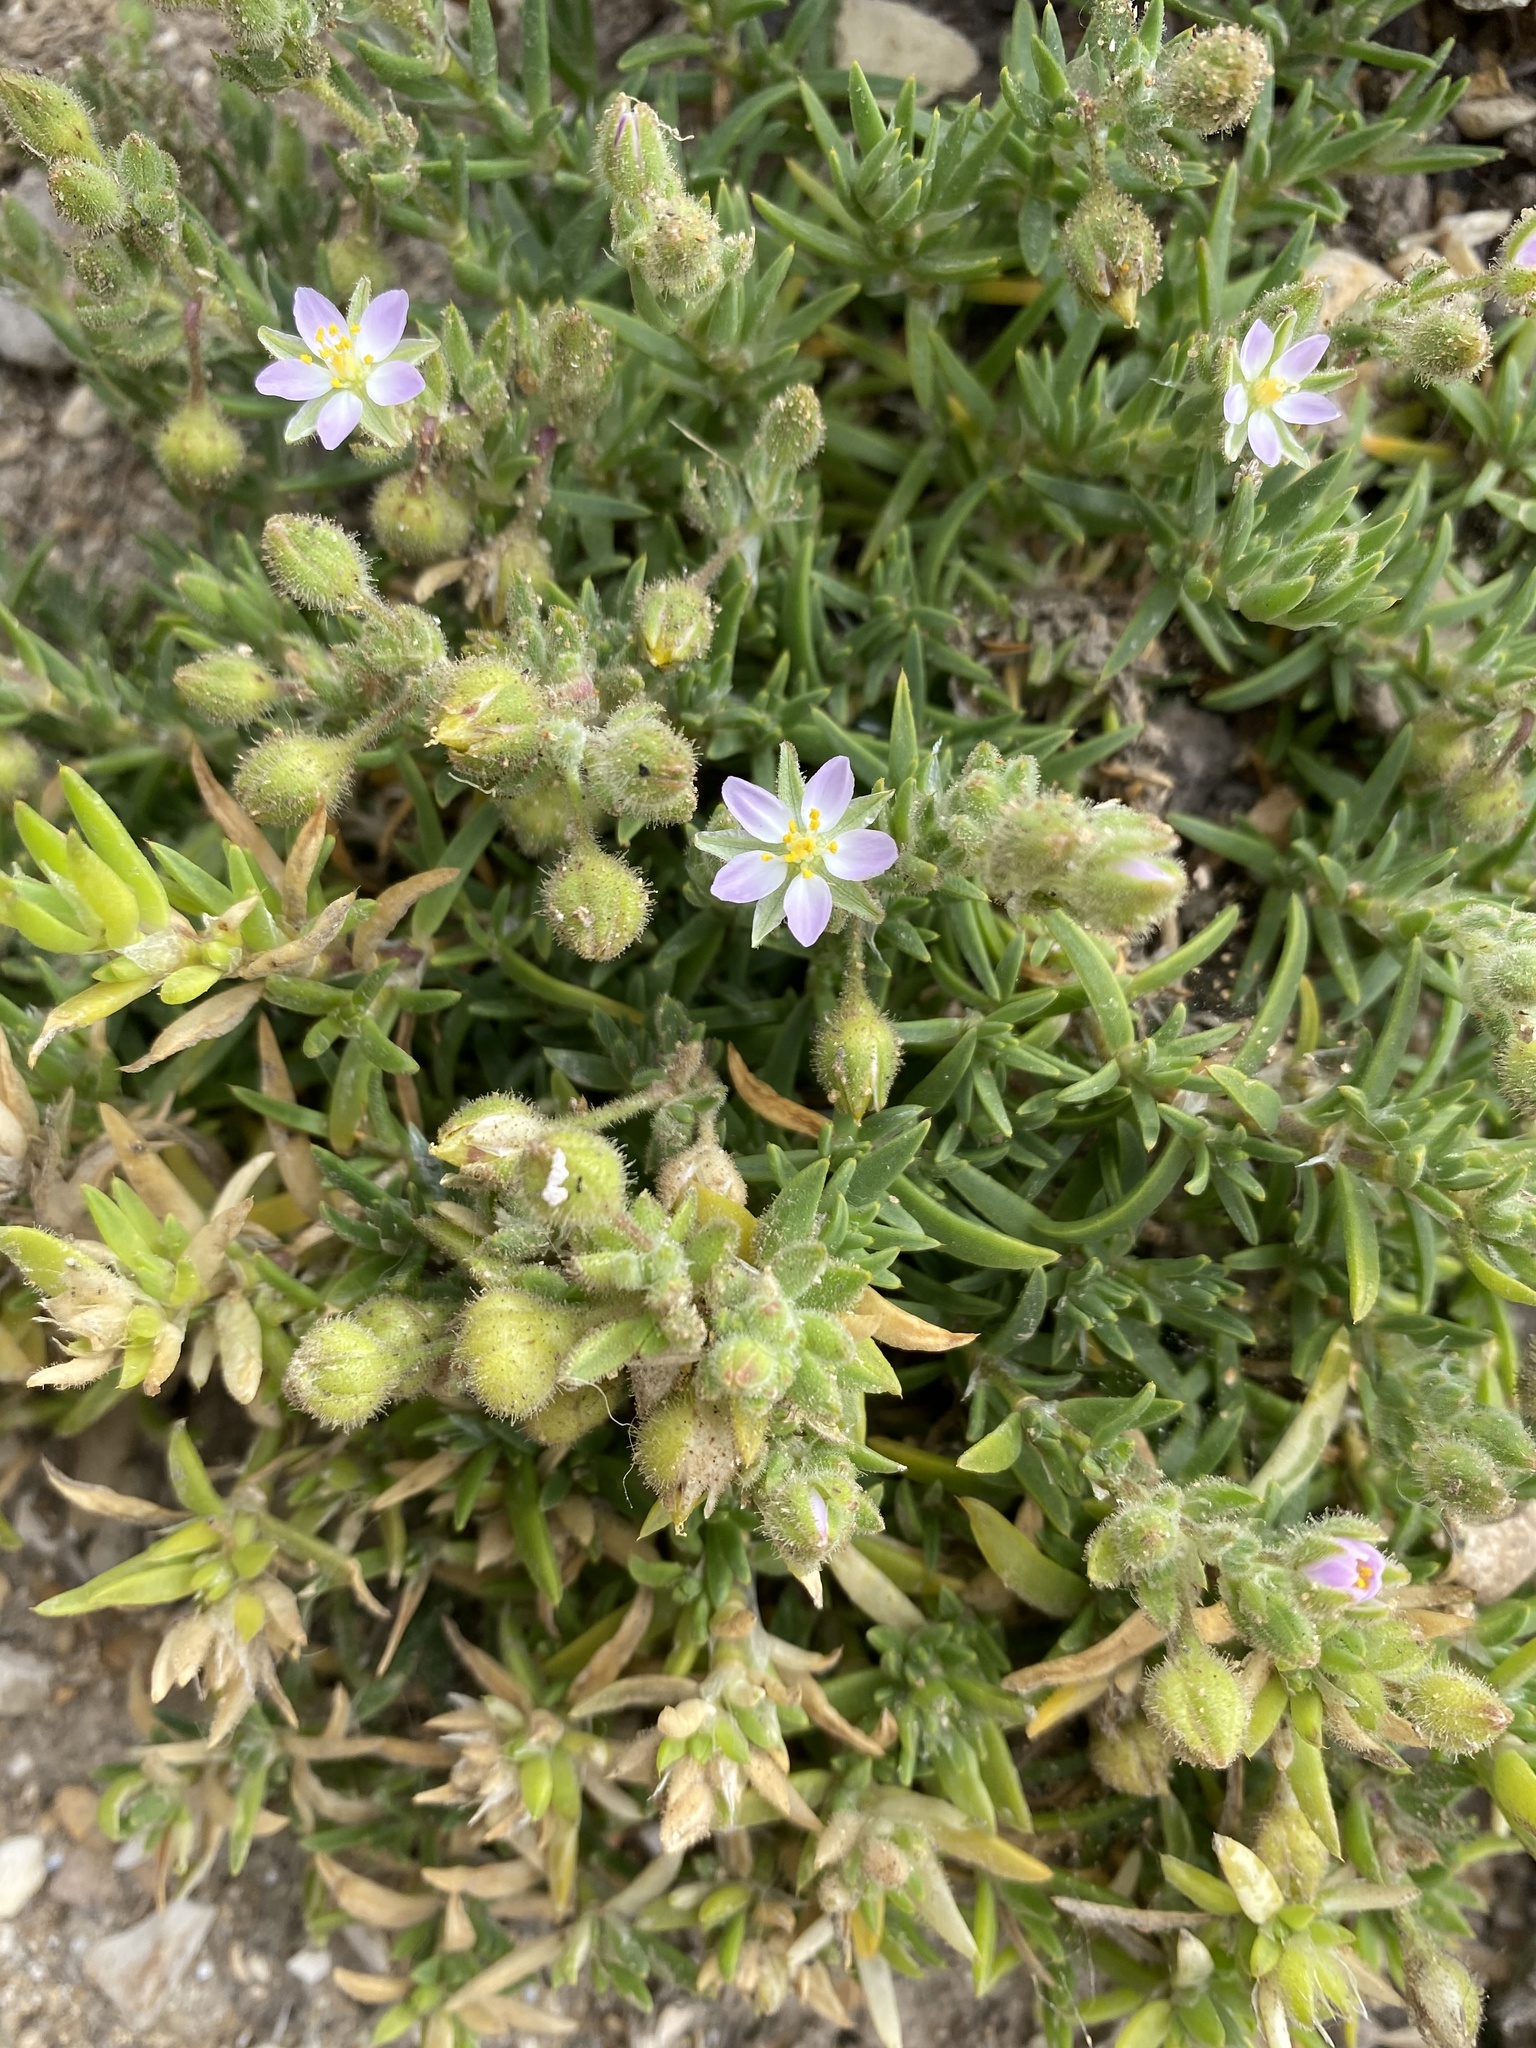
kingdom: Plantae
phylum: Tracheophyta
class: Magnoliopsida
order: Caryophyllales
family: Caryophyllaceae
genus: Spergularia
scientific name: Spergularia macrotheca
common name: Beach sand-spurrey
